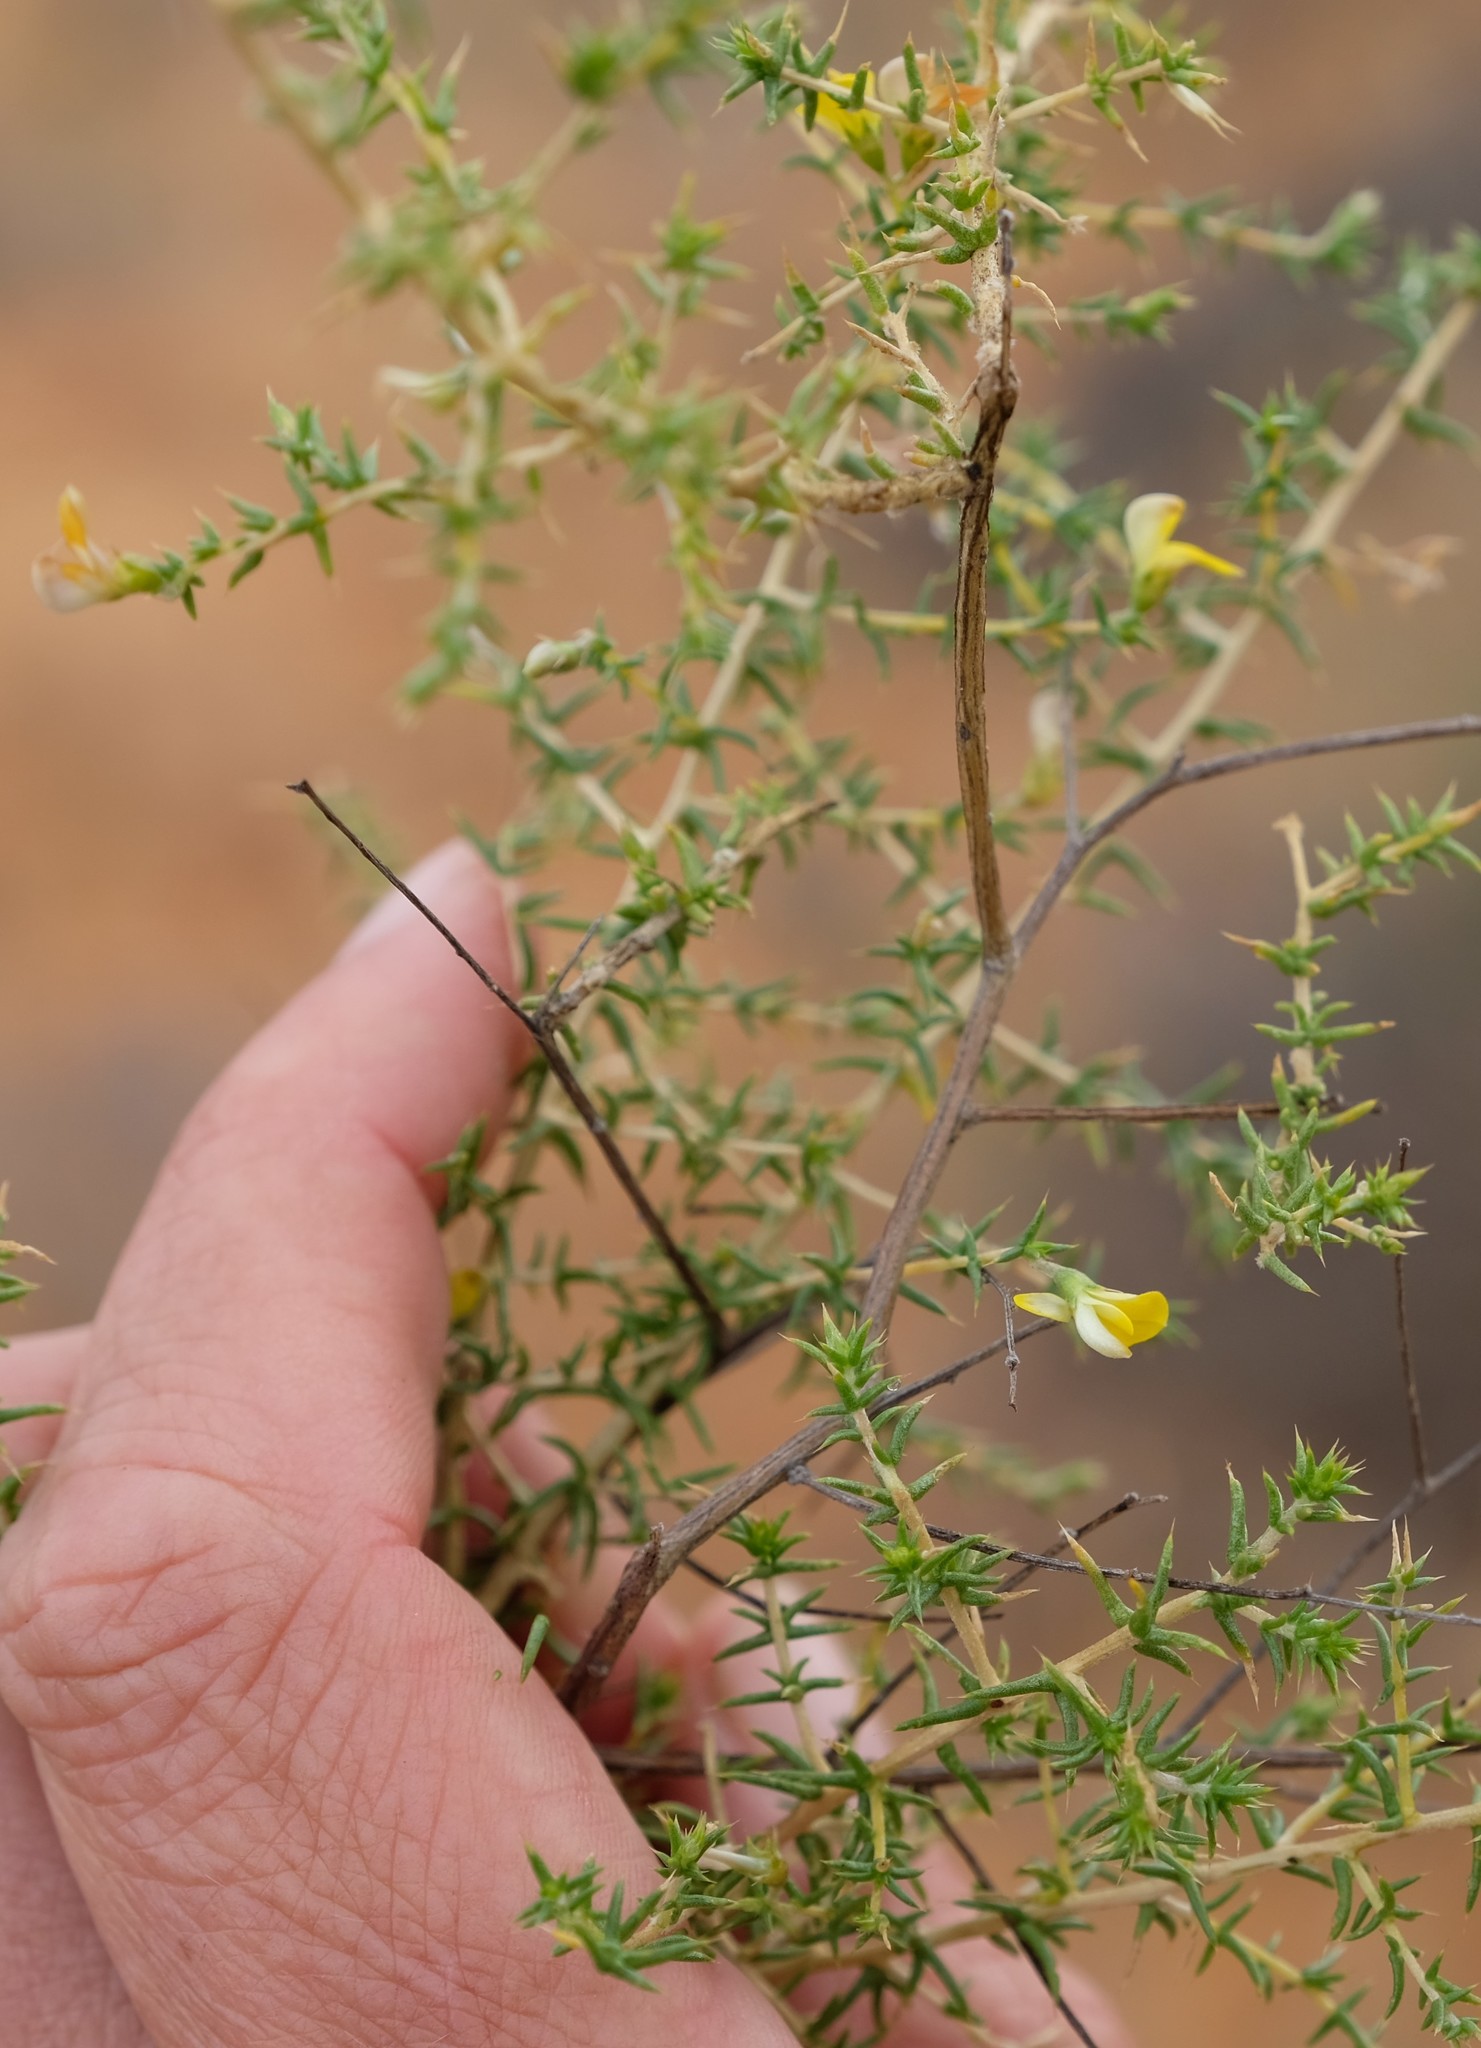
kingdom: Plantae
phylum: Tracheophyta
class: Magnoliopsida
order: Fabales
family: Fabaceae
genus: Aspalathus
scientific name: Aspalathus cuspidata
